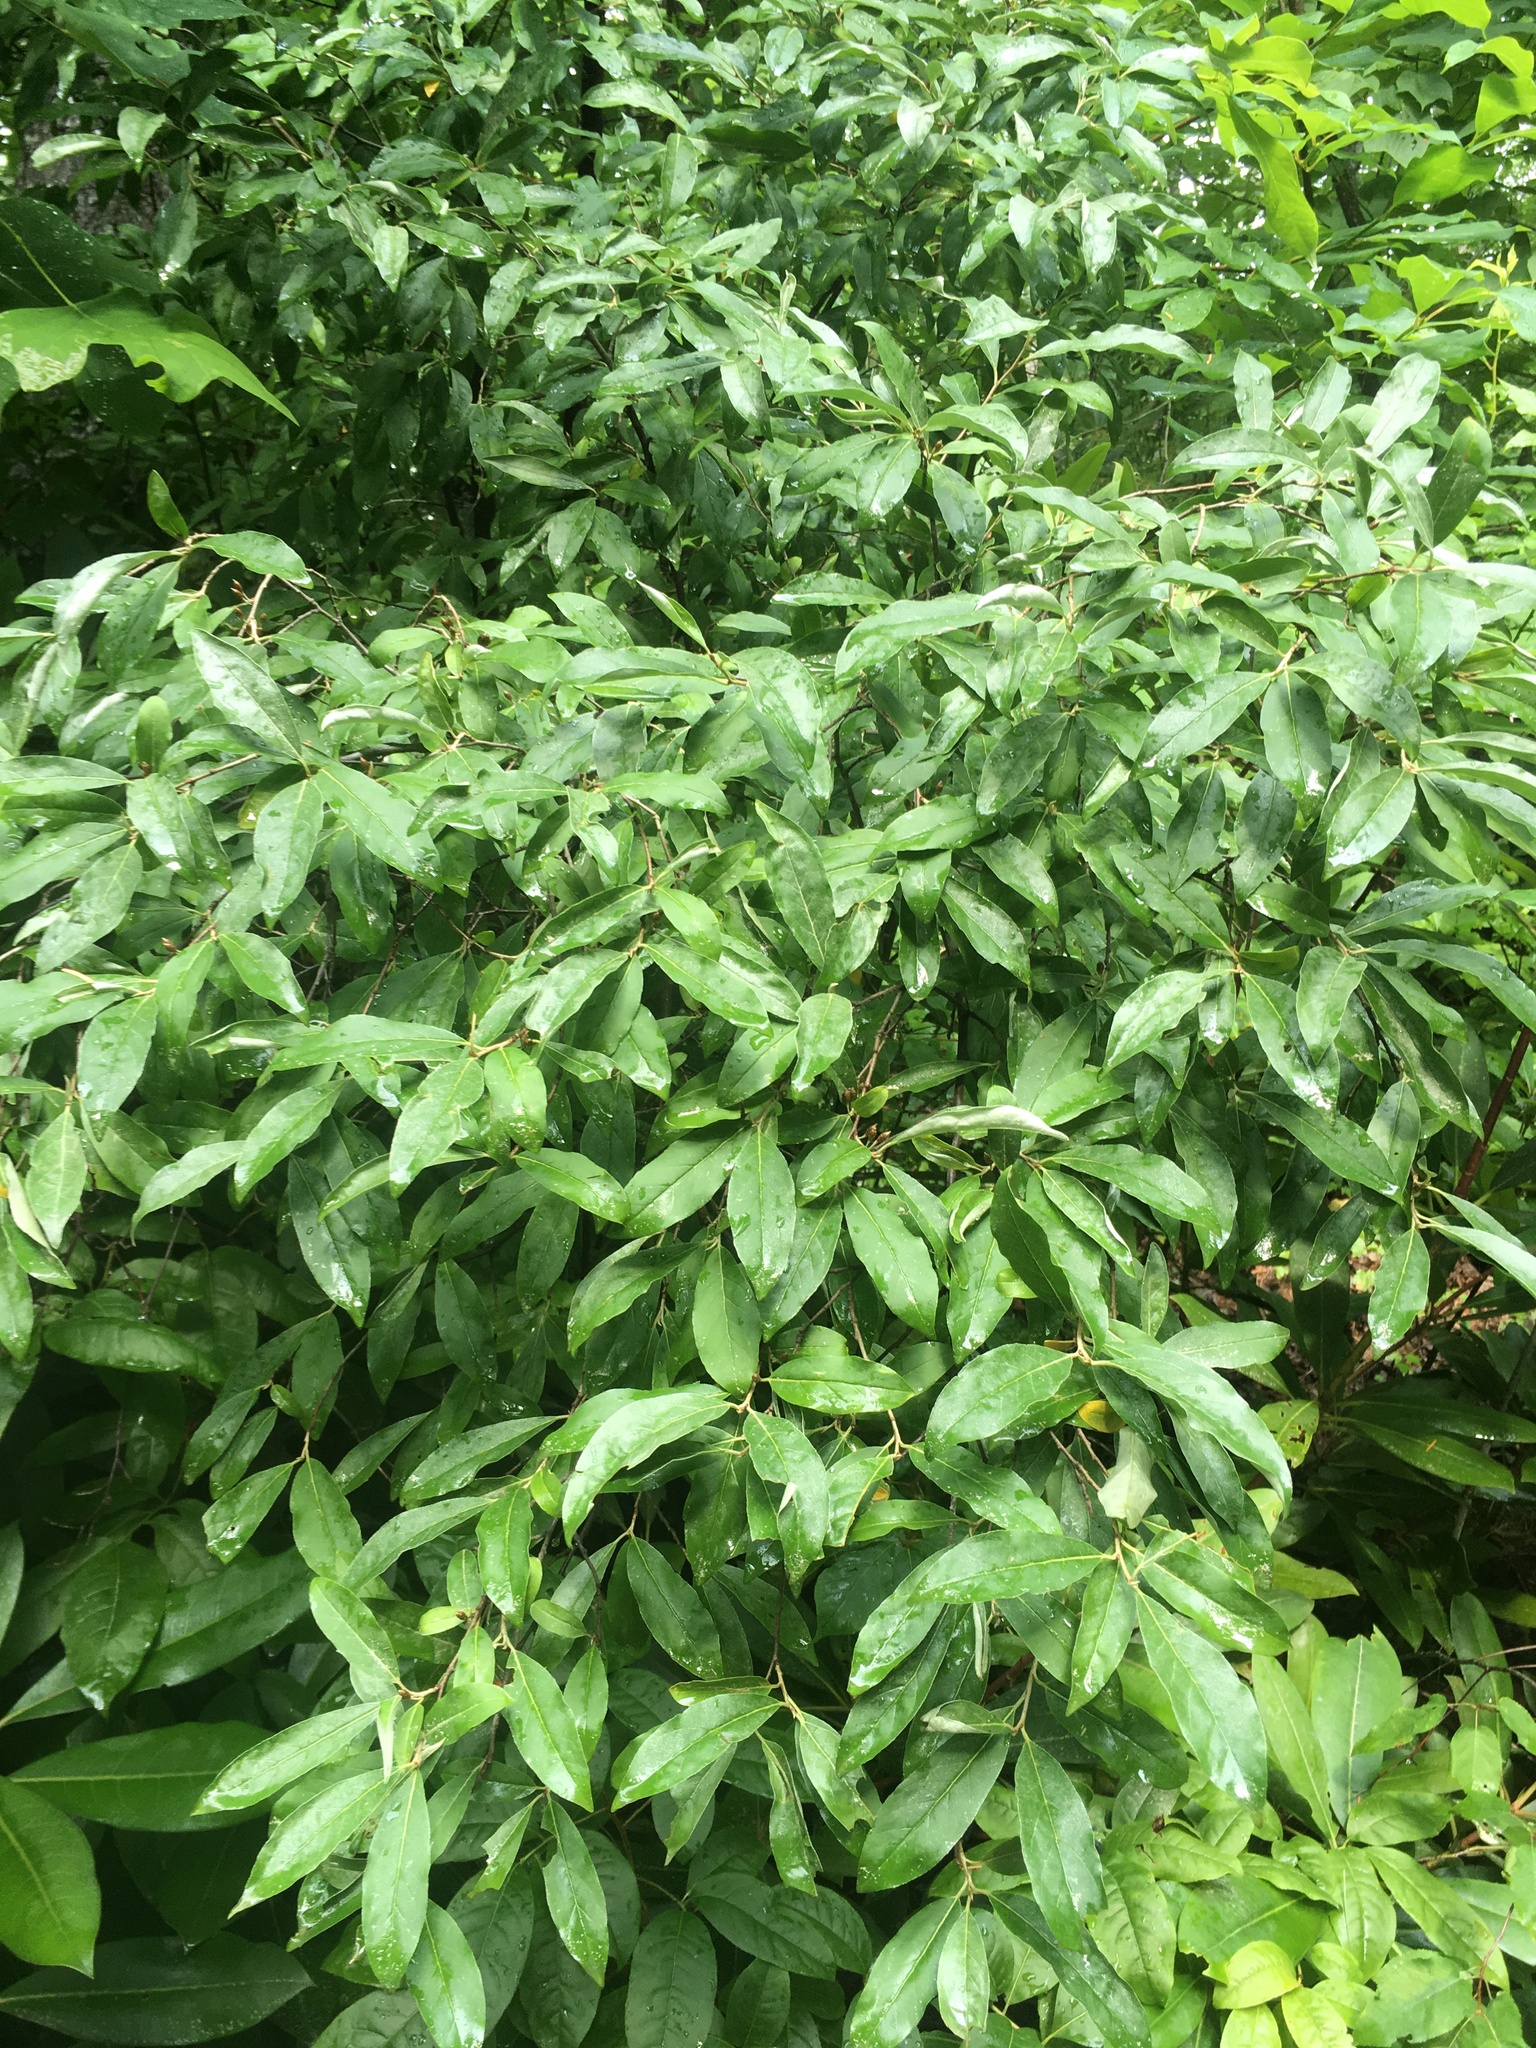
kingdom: Plantae
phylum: Tracheophyta
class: Magnoliopsida
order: Rosales
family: Elaeagnaceae
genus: Elaeagnus
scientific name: Elaeagnus umbellata
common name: Autumn olive
